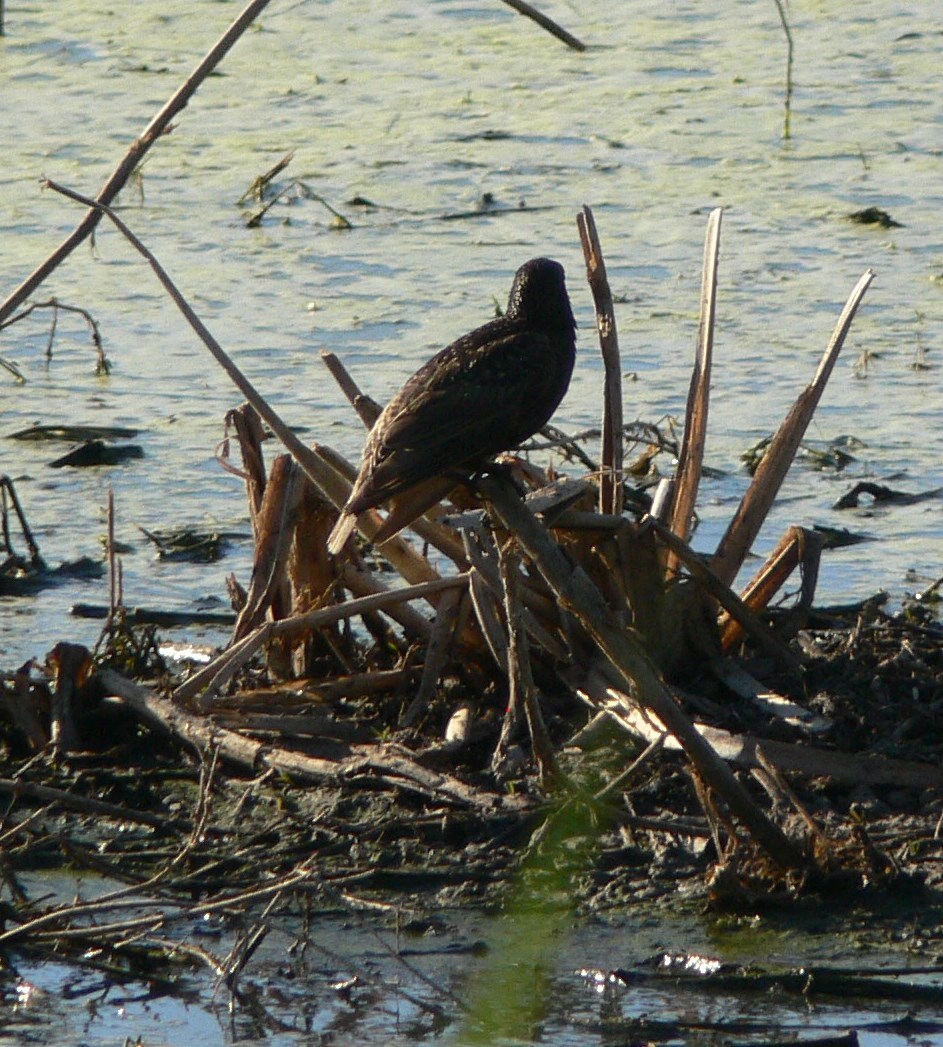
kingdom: Animalia
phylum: Chordata
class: Aves
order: Passeriformes
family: Sturnidae
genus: Sturnus
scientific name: Sturnus vulgaris
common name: Common starling
